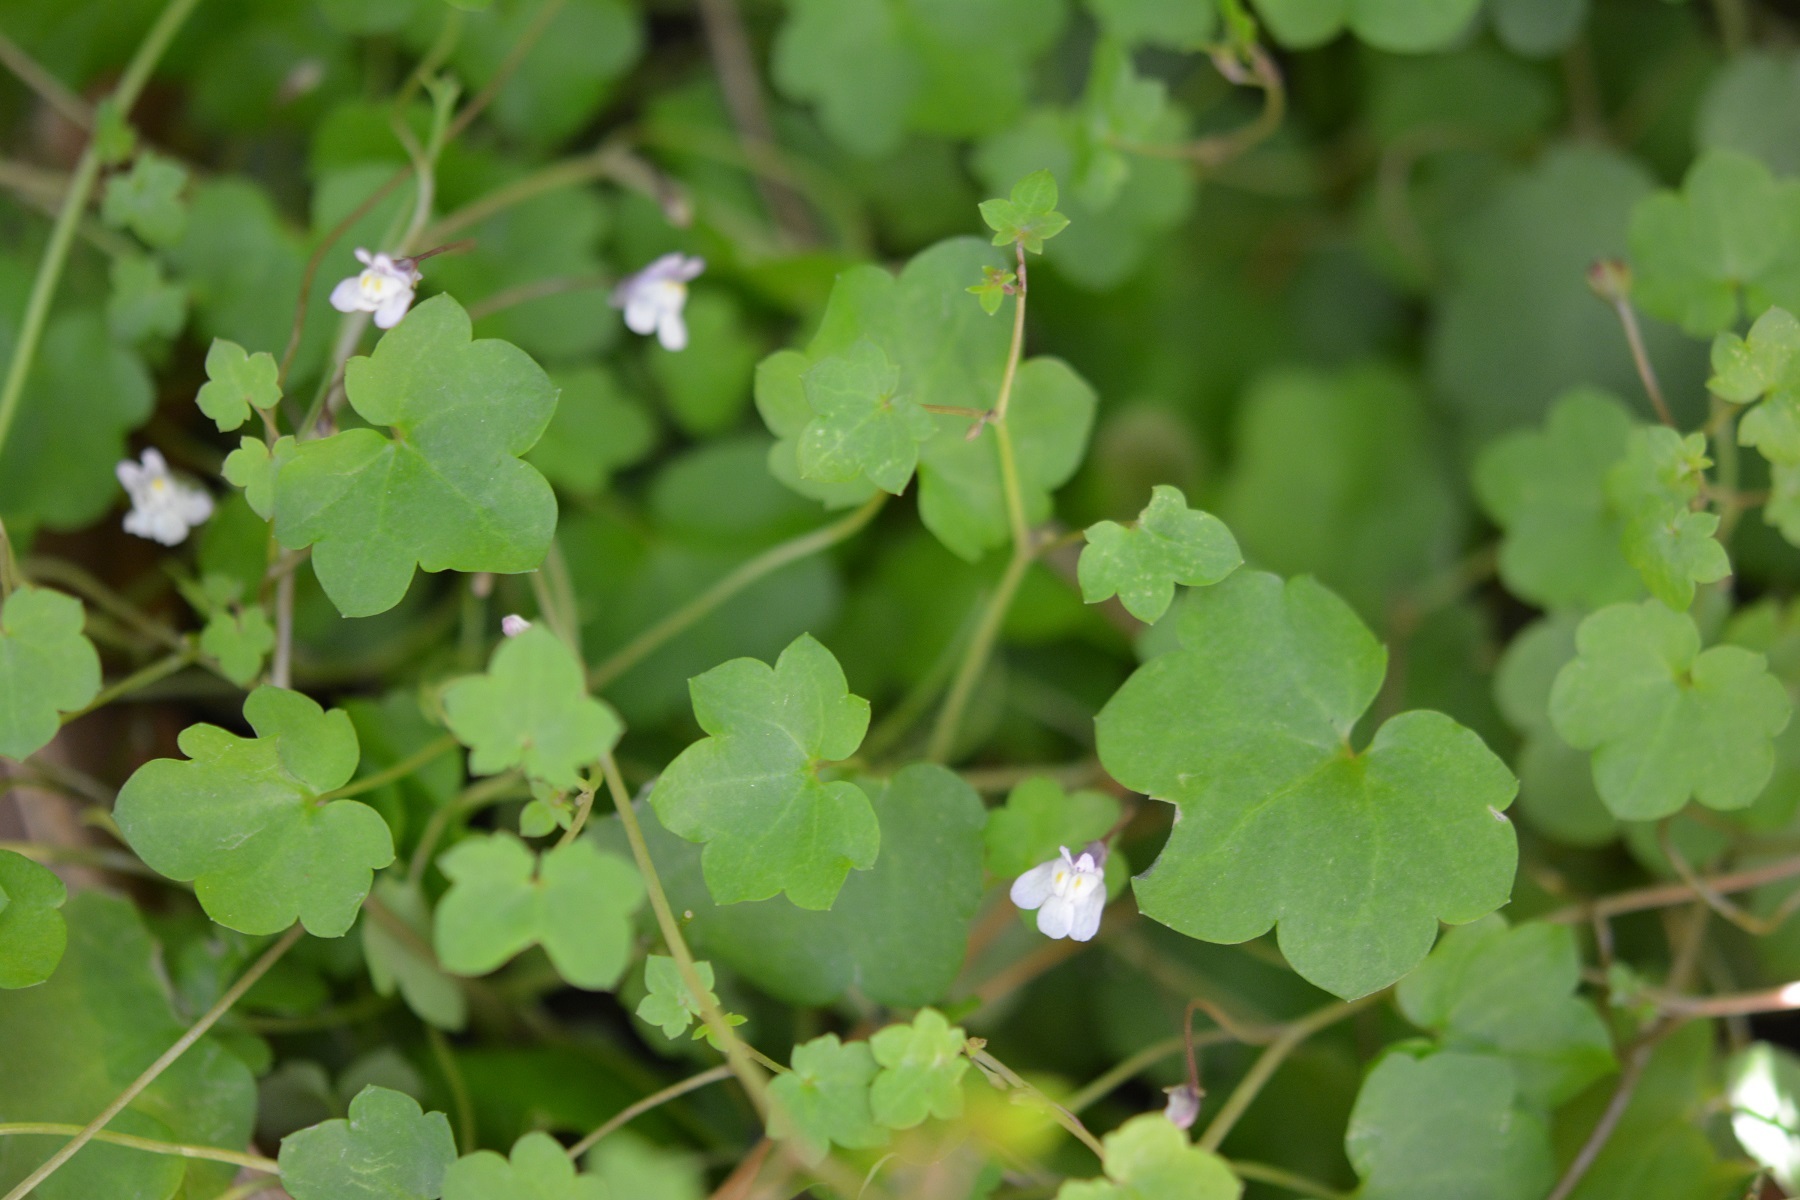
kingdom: Plantae
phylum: Tracheophyta
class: Magnoliopsida
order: Lamiales
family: Plantaginaceae
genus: Cymbalaria
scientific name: Cymbalaria muralis
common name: Ivy-leaved toadflax
